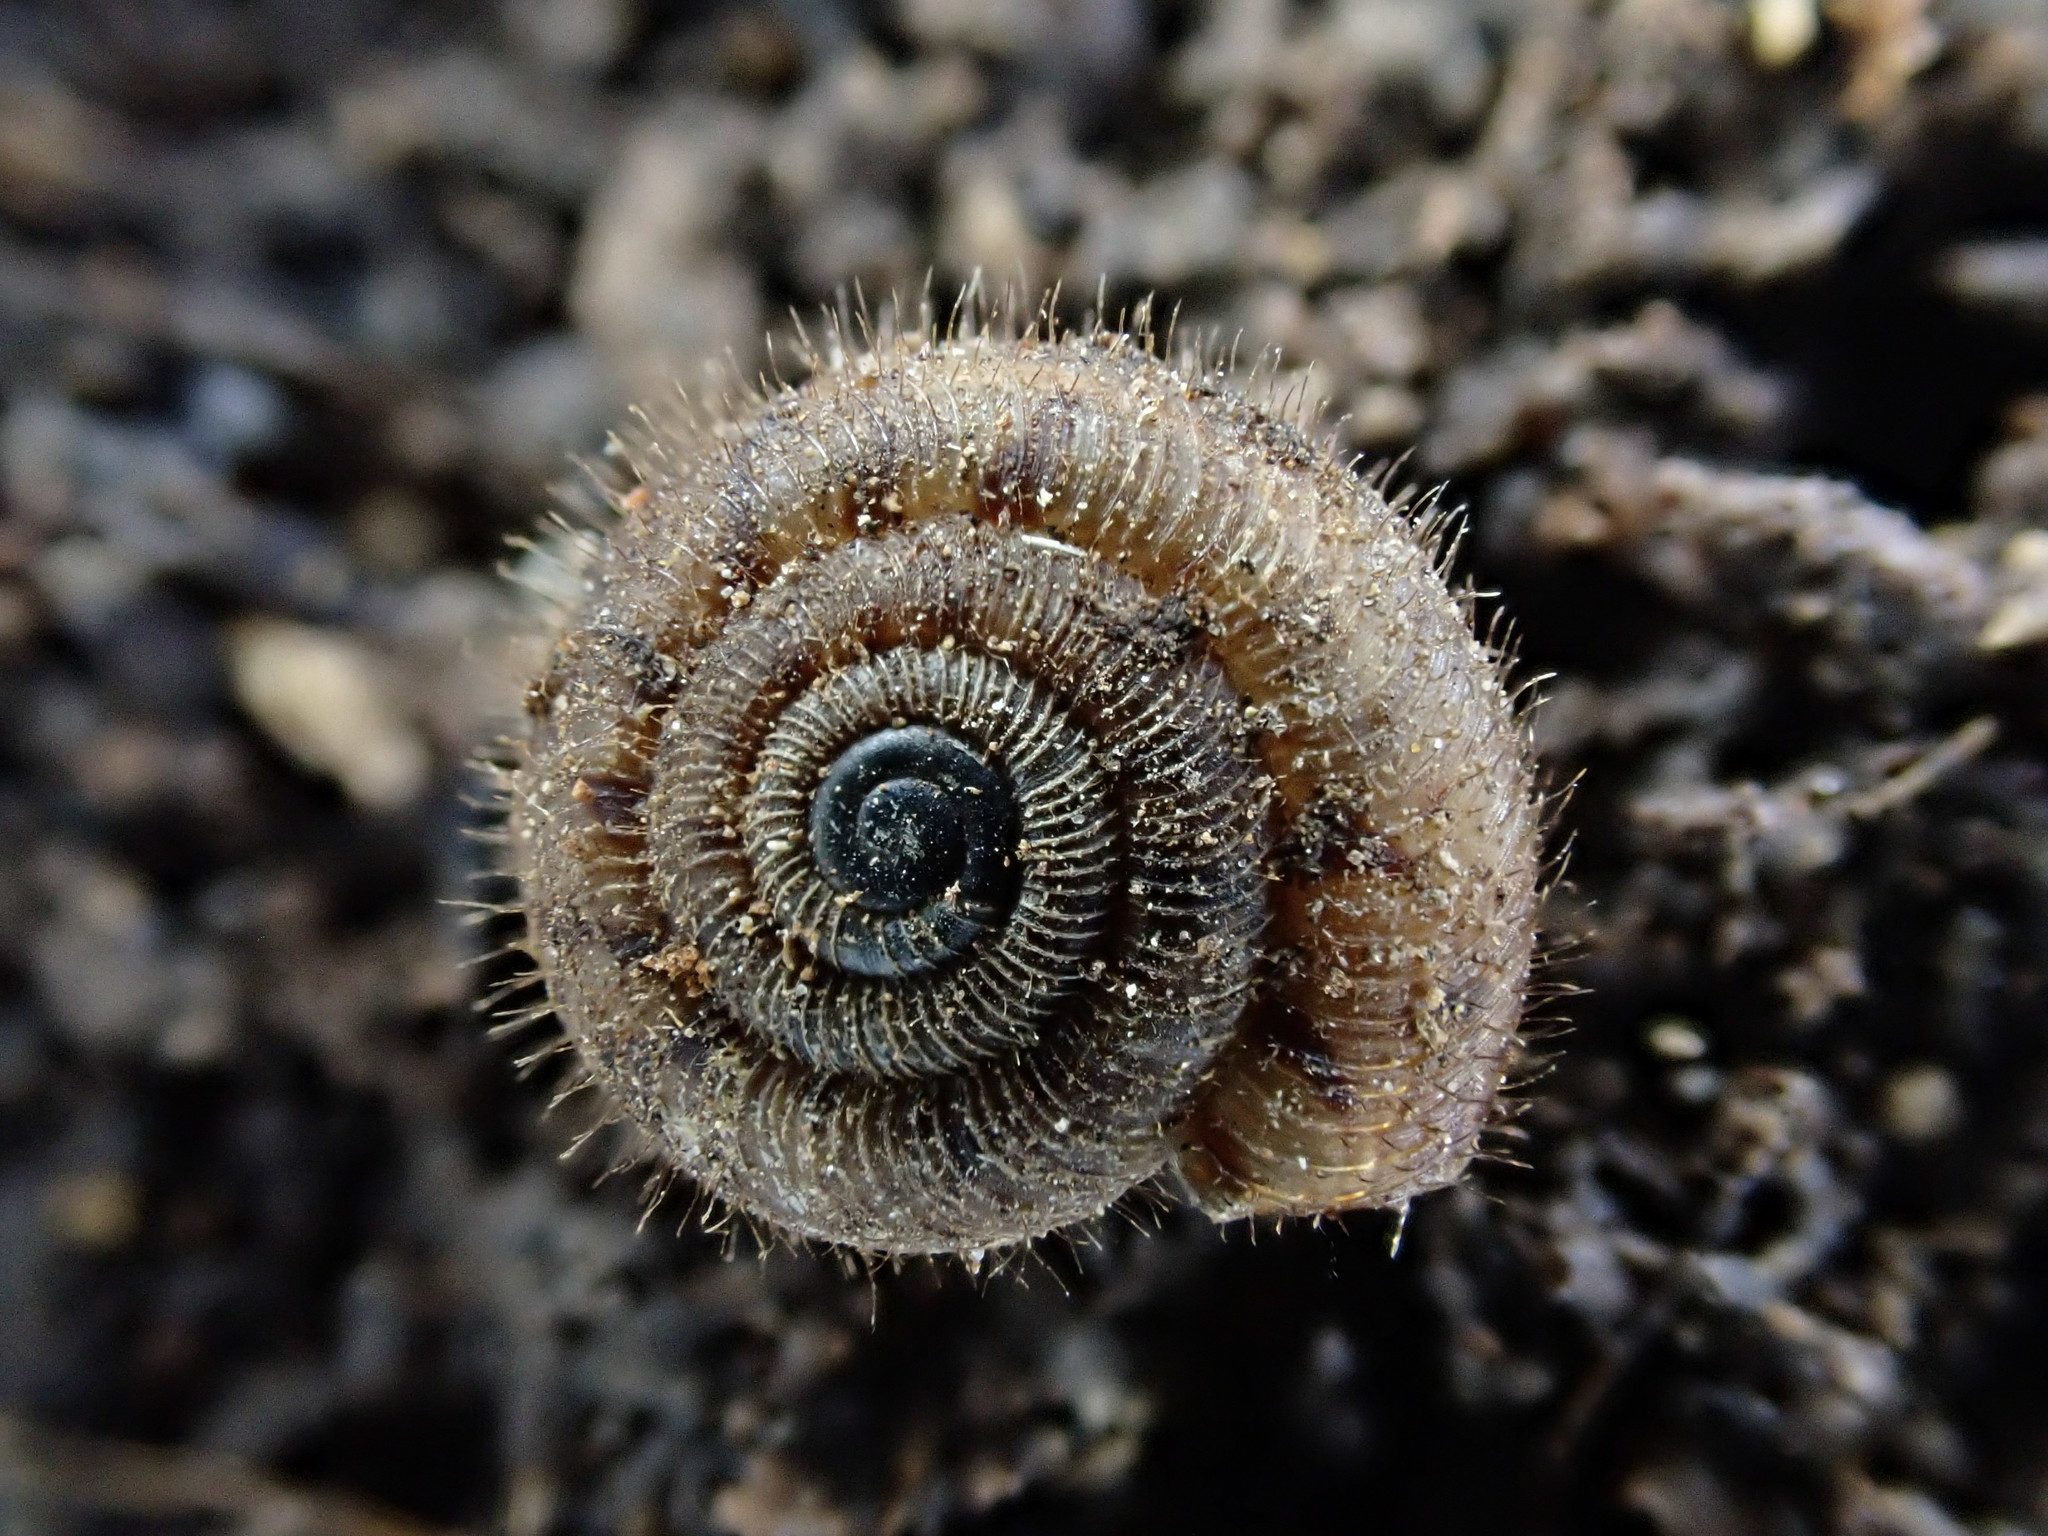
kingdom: Animalia
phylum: Mollusca
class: Gastropoda
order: Stylommatophora
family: Charopidae
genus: Neophenacohelix
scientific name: Neophenacohelix ziczac
